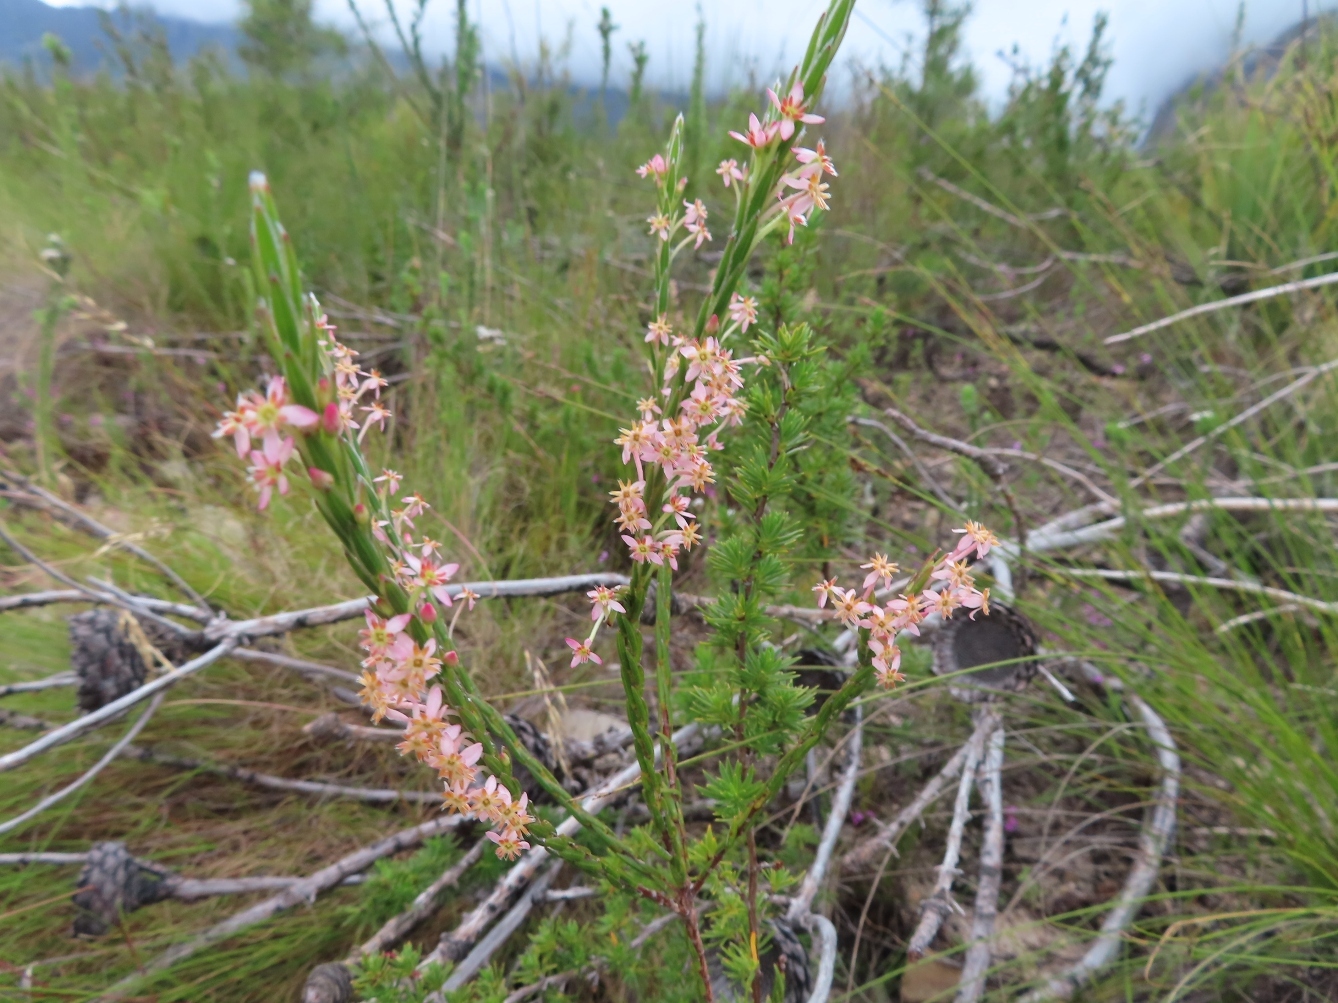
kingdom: Plantae
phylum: Tracheophyta
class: Magnoliopsida
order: Malvales
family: Thymelaeaceae
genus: Struthiola
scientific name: Struthiola ciliata
